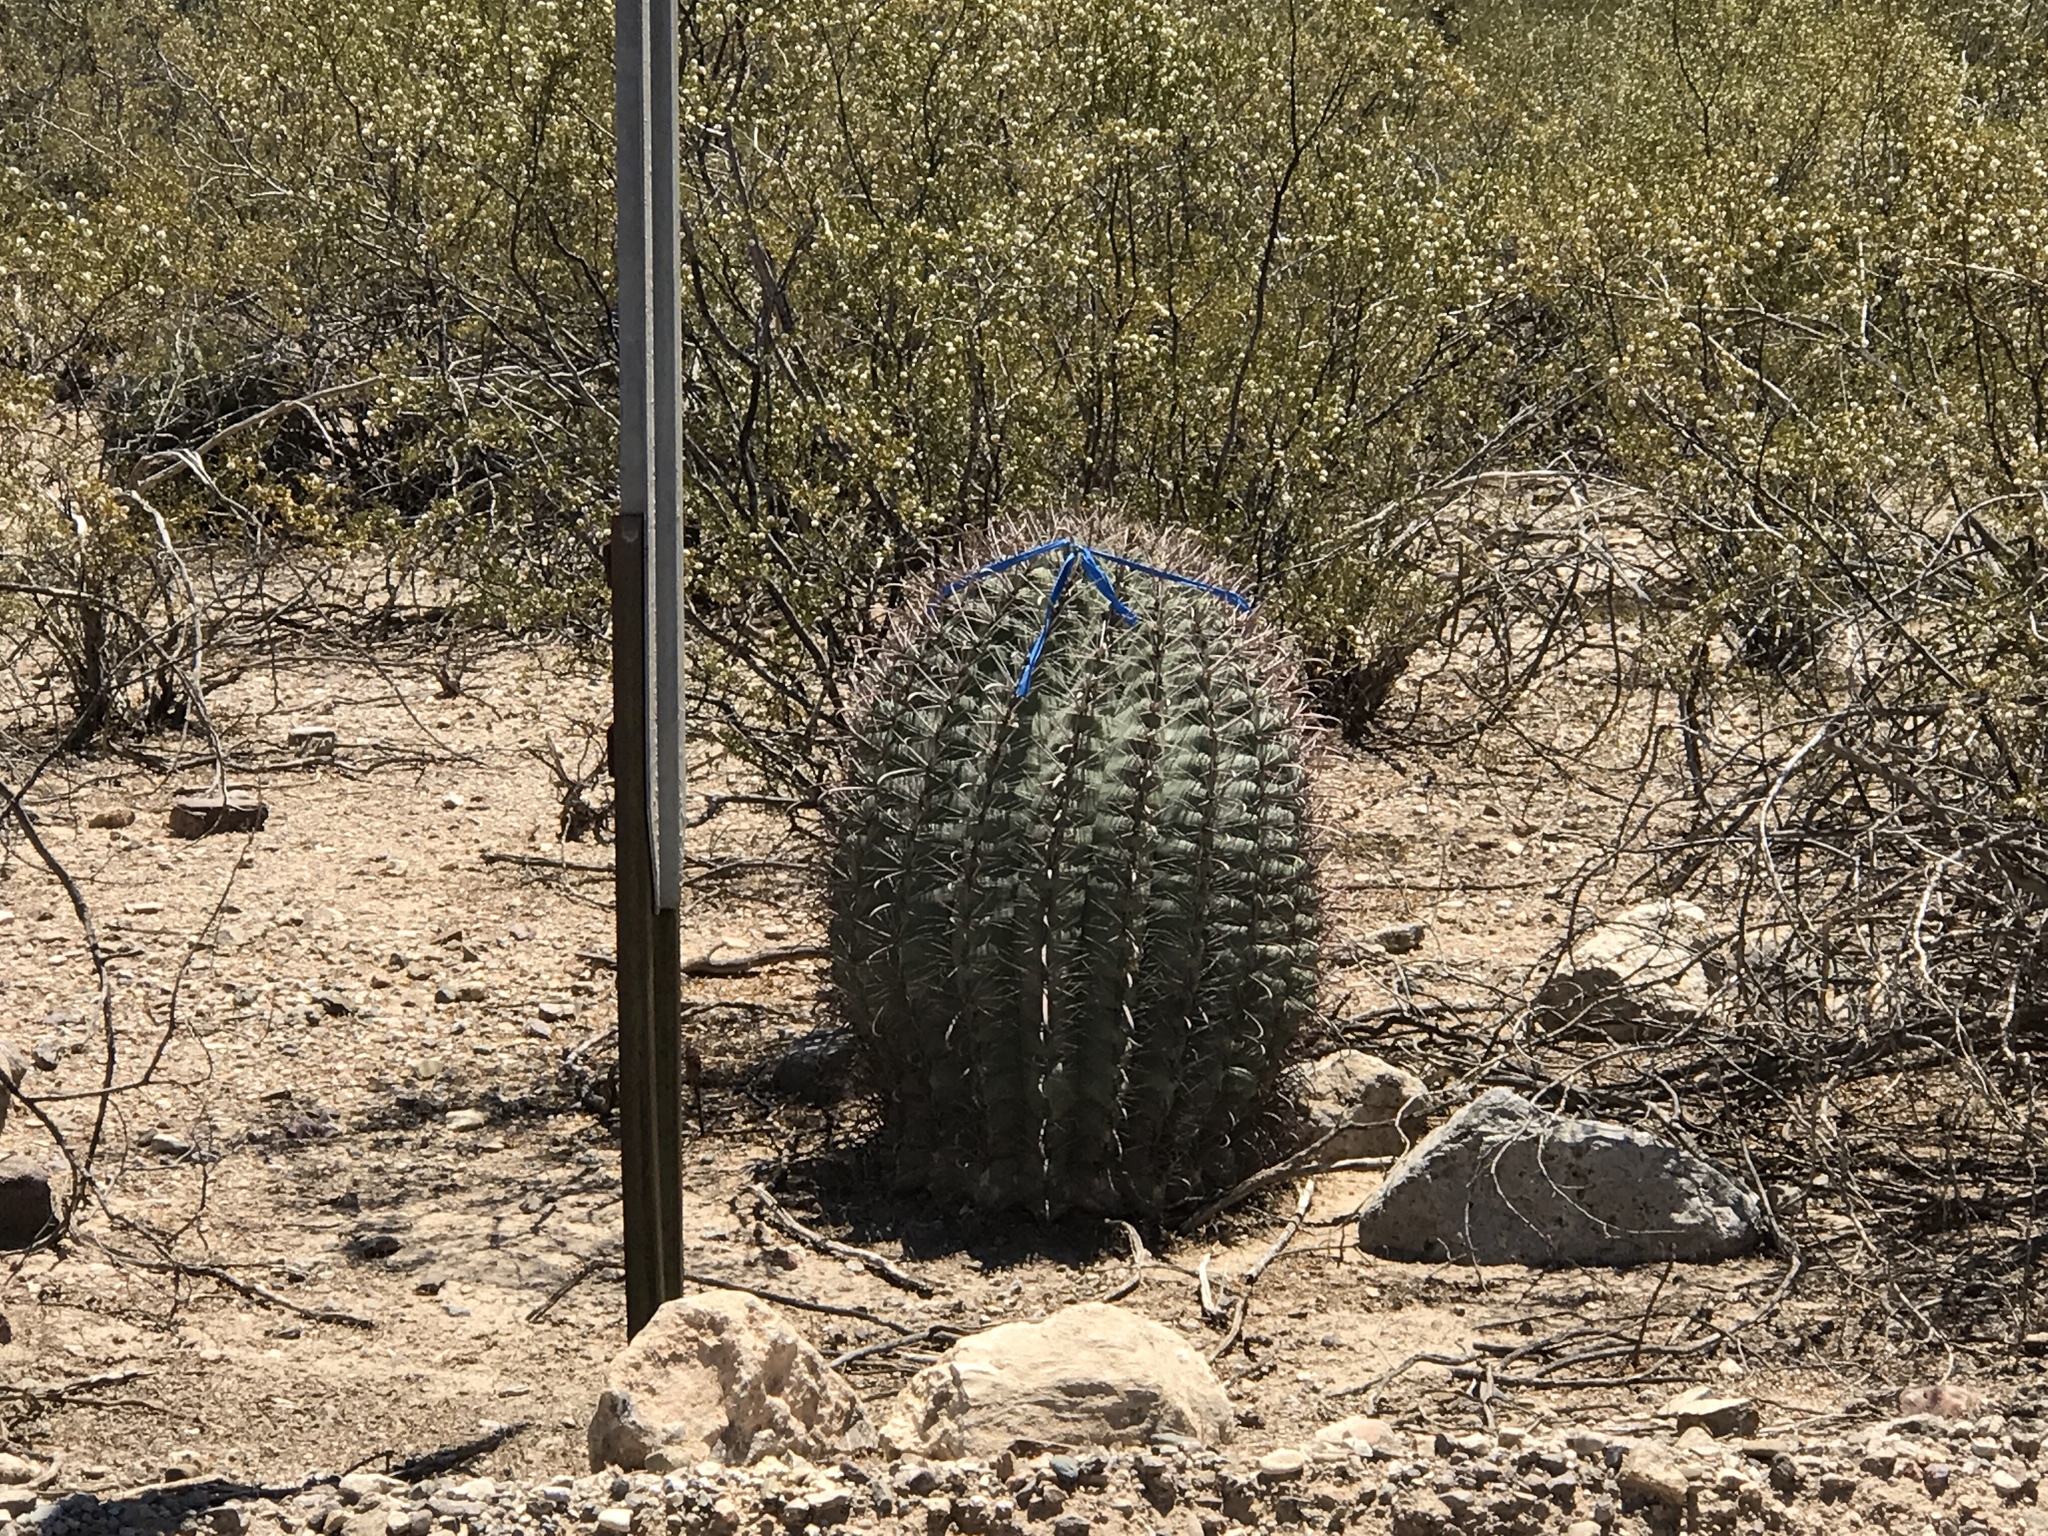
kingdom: Plantae
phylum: Tracheophyta
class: Magnoliopsida
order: Caryophyllales
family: Cactaceae
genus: Ferocactus
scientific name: Ferocactus wislizeni
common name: Candy barrel cactus
